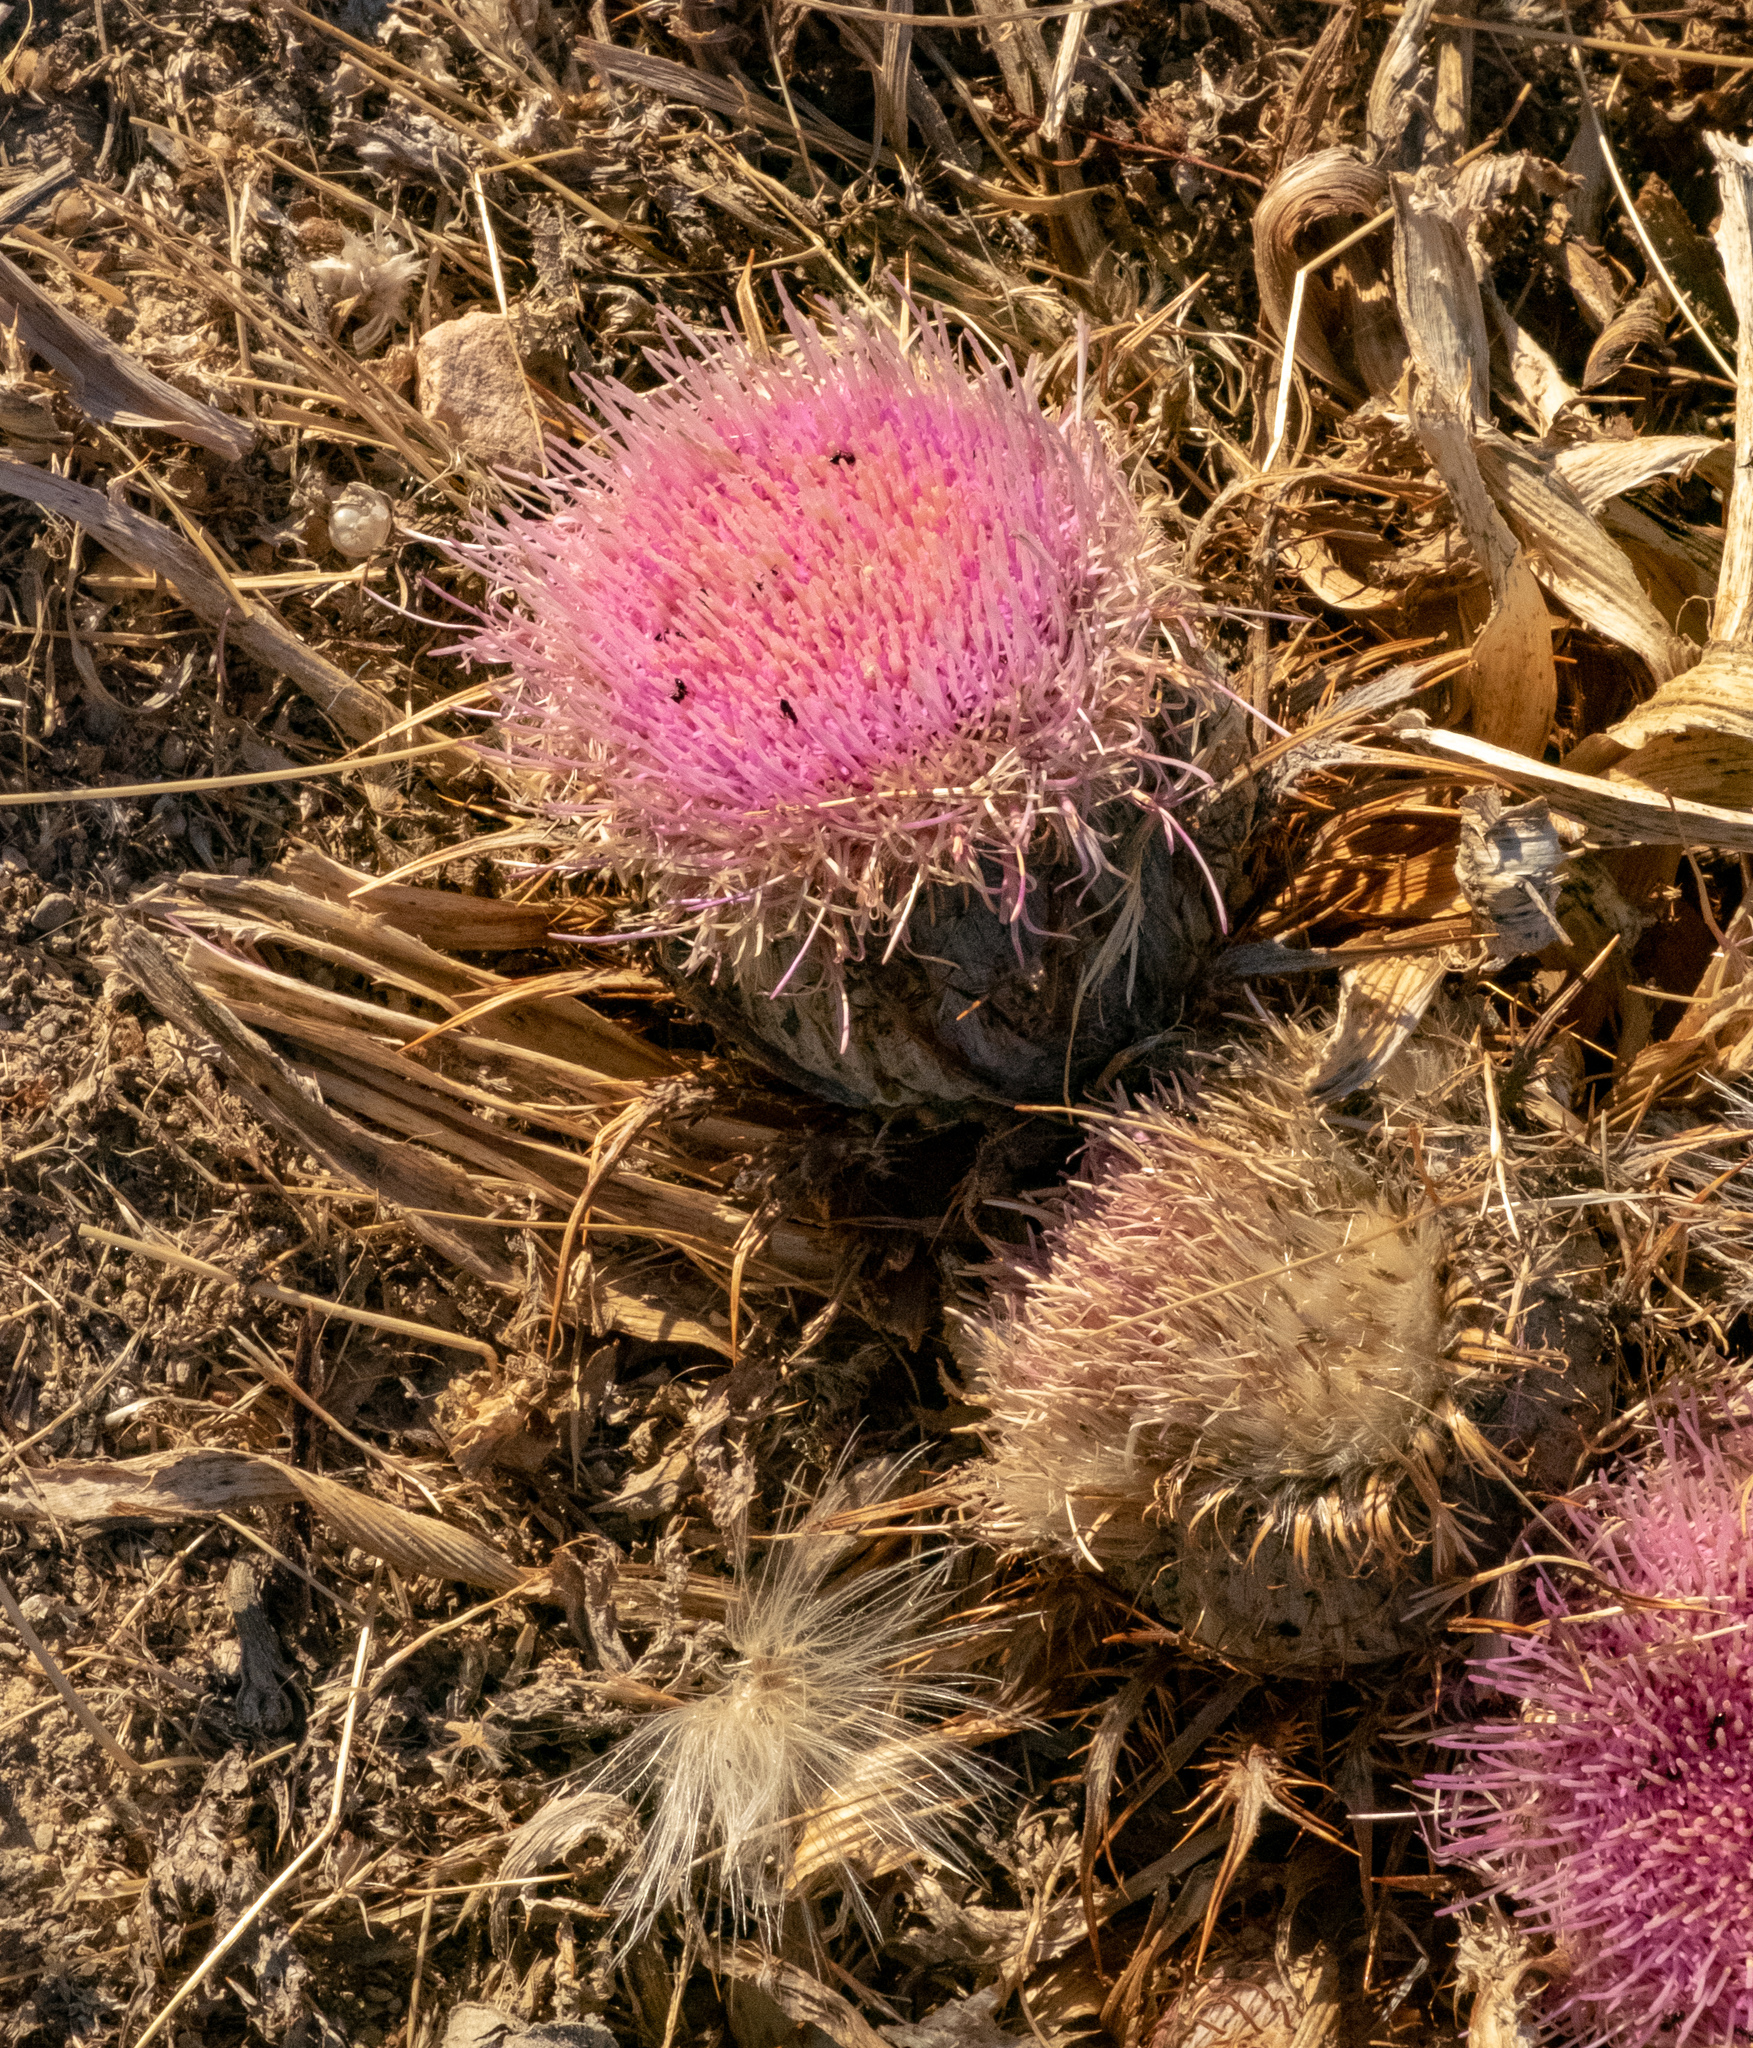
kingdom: Plantae
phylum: Tracheophyta
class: Magnoliopsida
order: Asterales
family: Asteraceae
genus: Chamaeleon
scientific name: Chamaeleon gummifer
